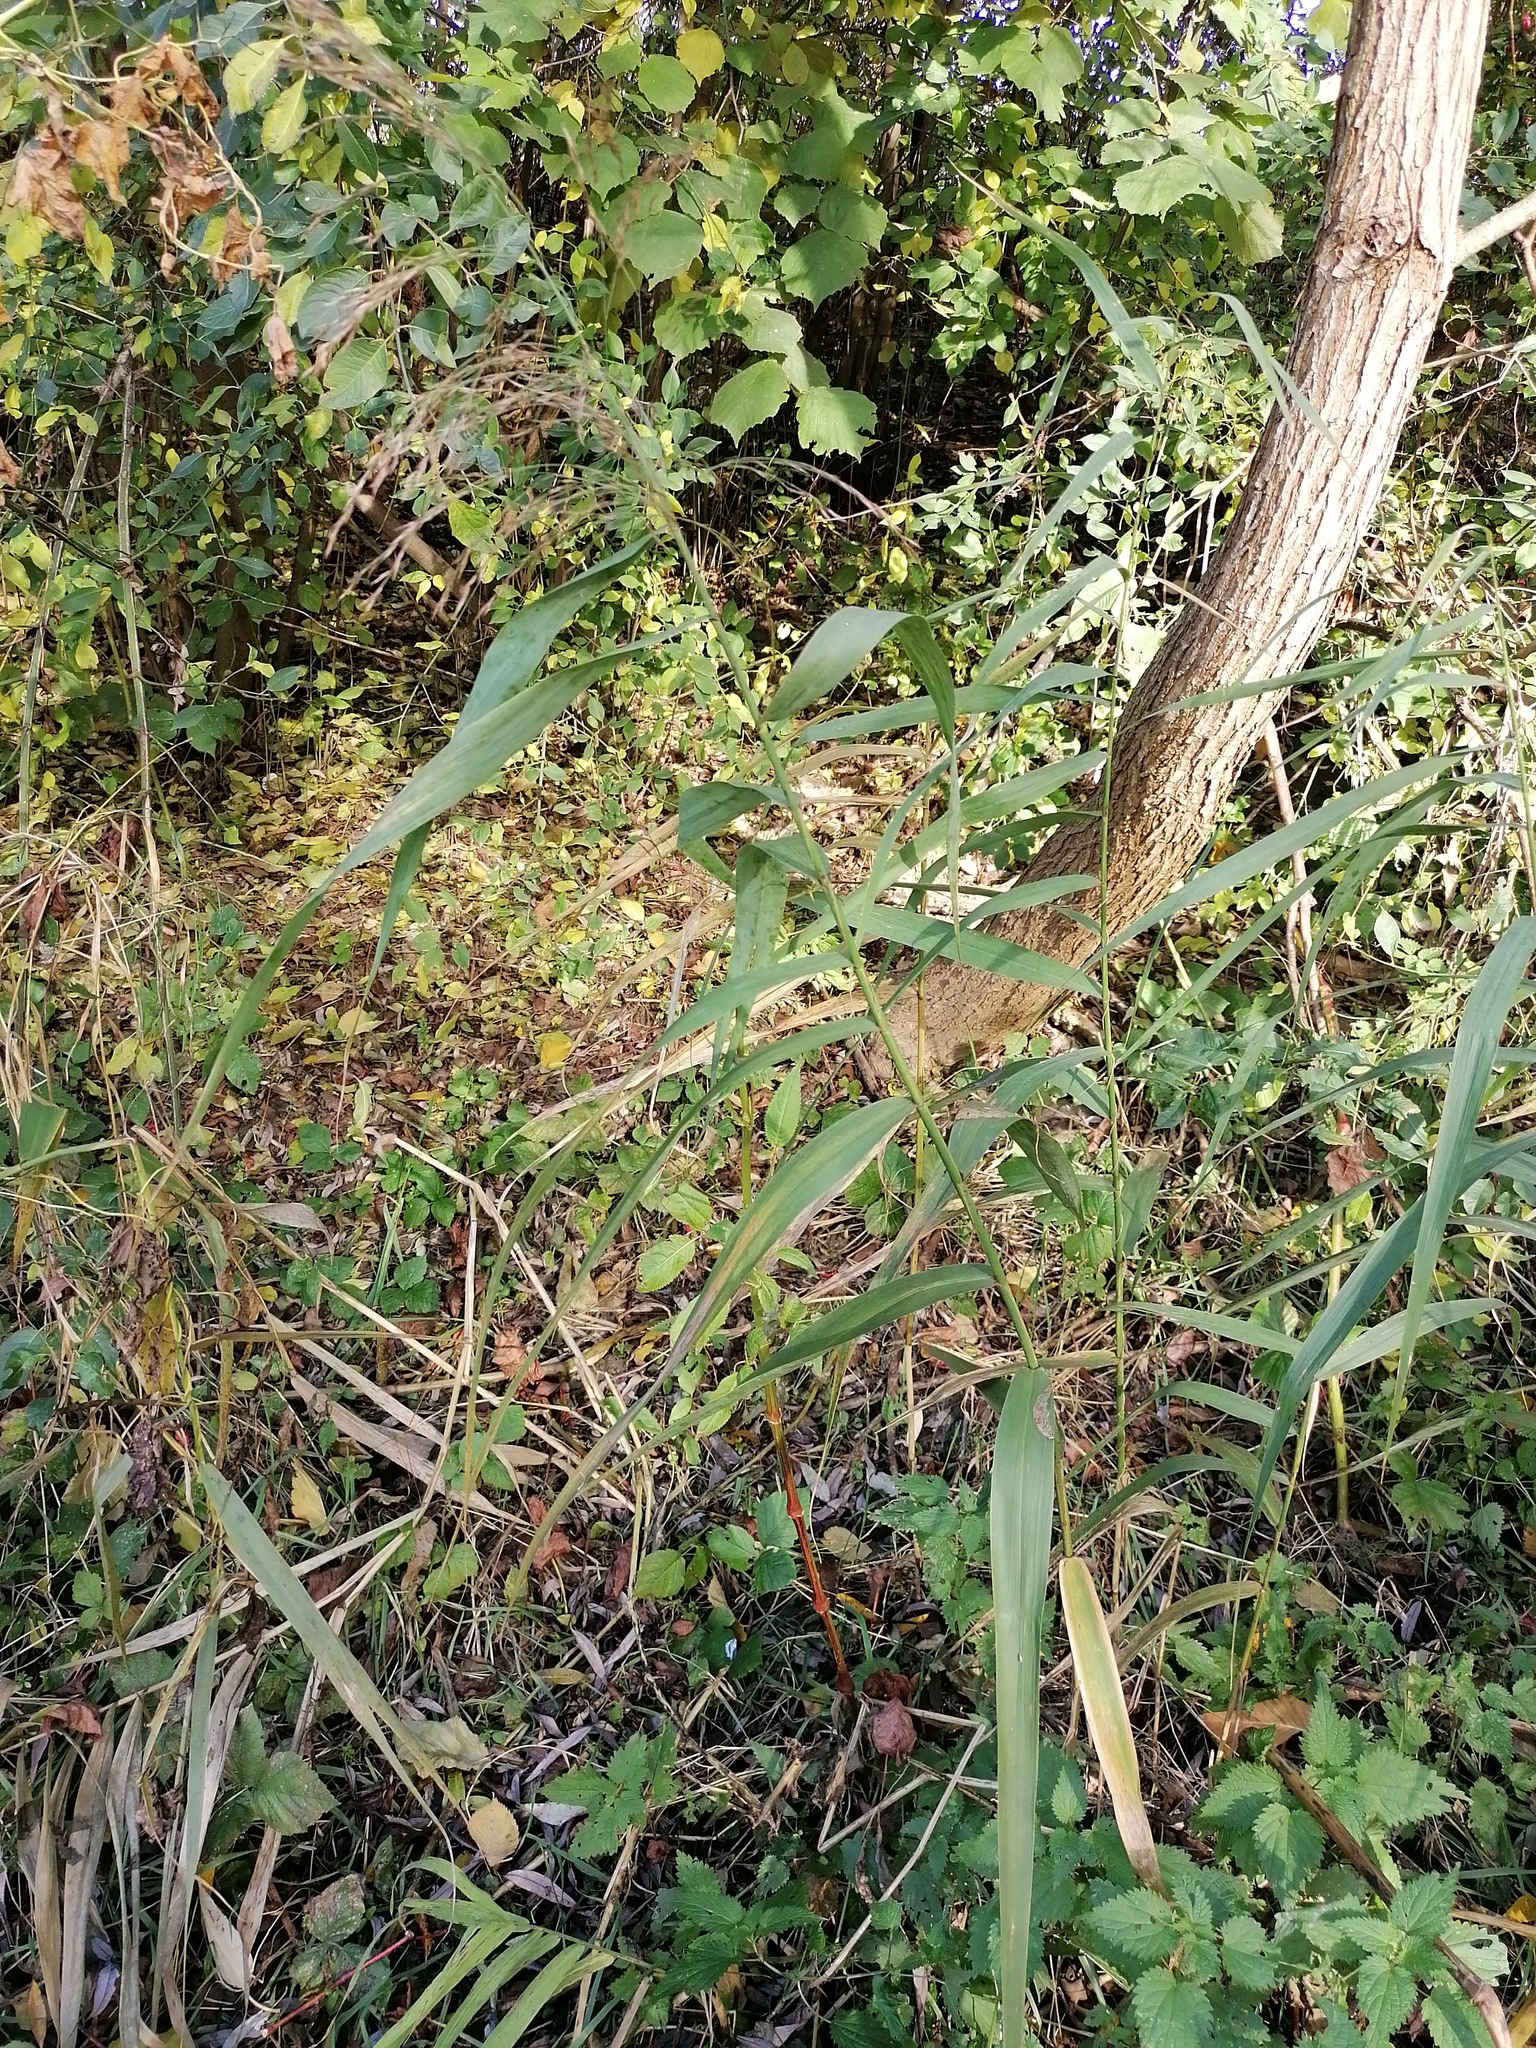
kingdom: Plantae
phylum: Tracheophyta
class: Liliopsida
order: Poales
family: Poaceae
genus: Phragmites
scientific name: Phragmites australis
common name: Common reed
